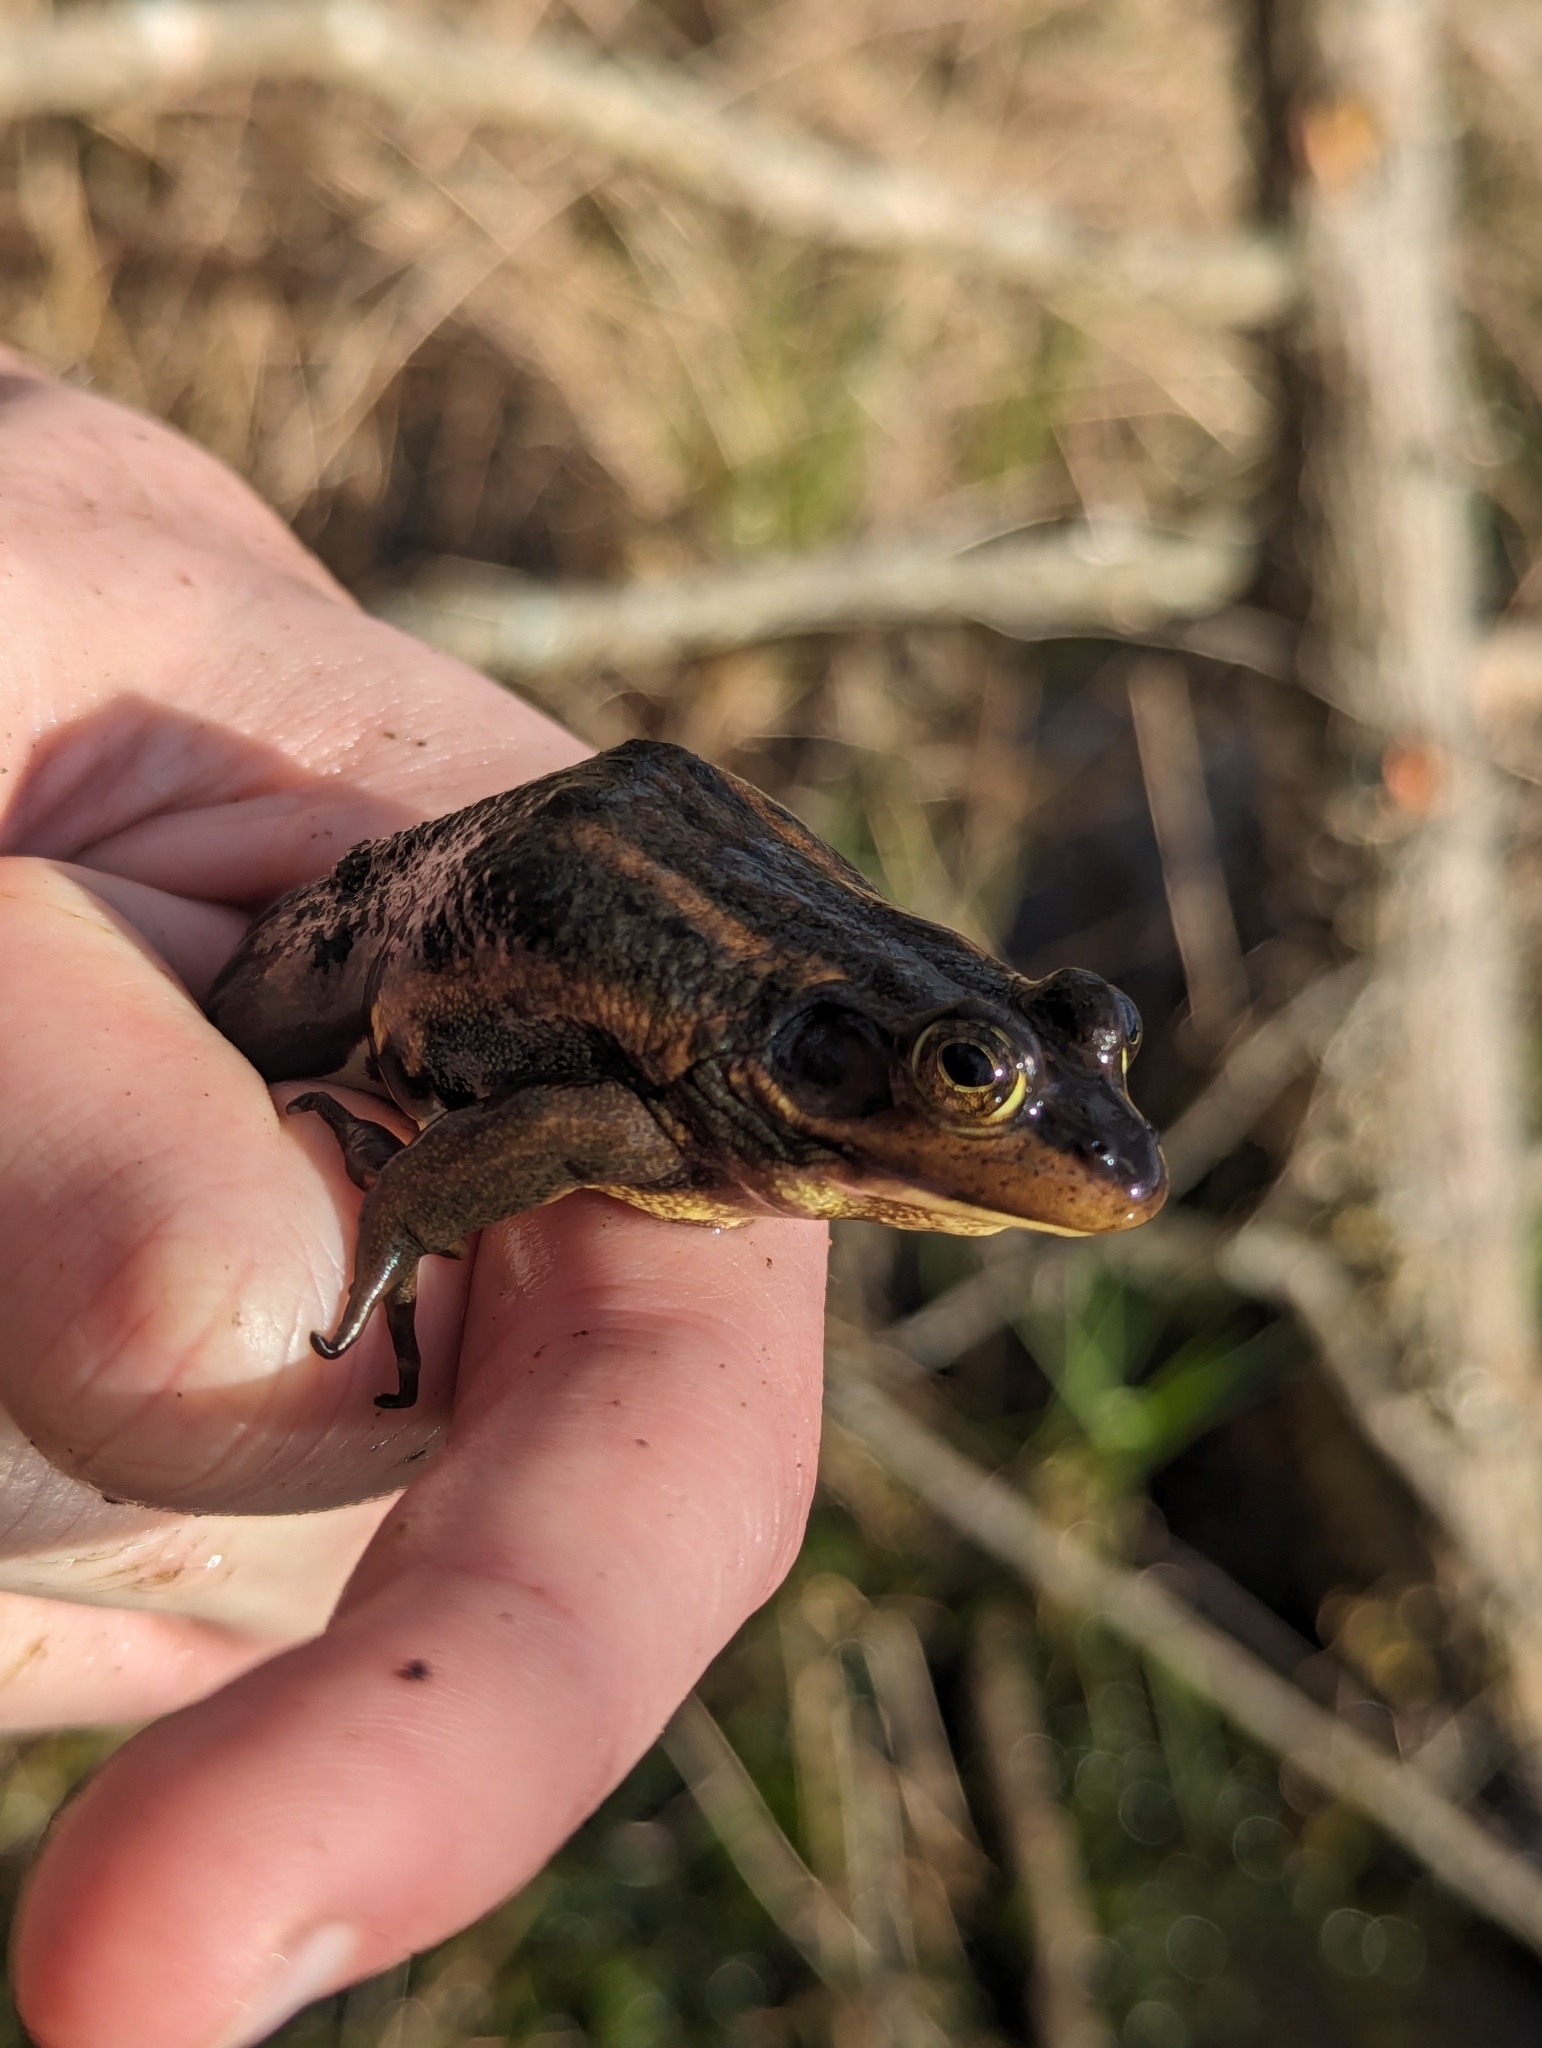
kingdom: Animalia
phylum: Chordata
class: Amphibia
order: Anura
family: Ranidae
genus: Lithobates
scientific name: Lithobates virgatipes
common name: Carpenter frog
